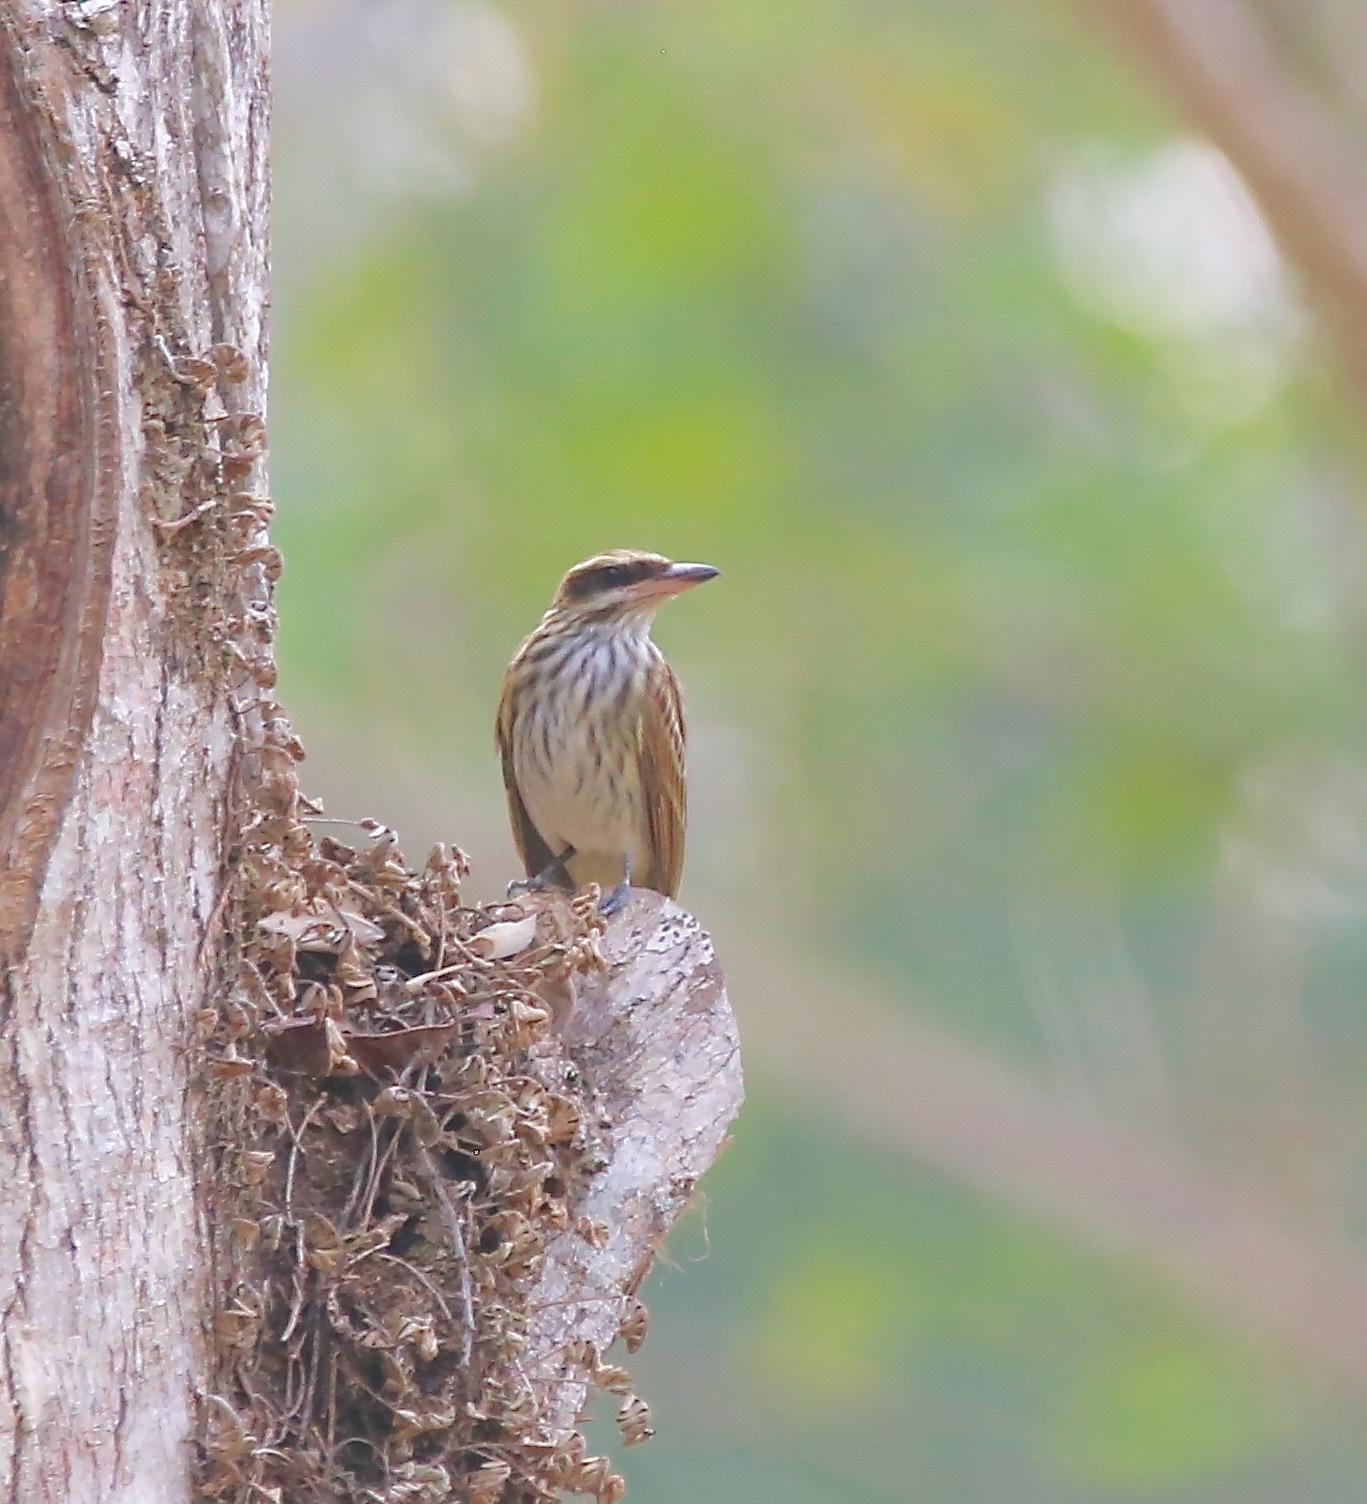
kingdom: Animalia
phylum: Chordata
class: Aves
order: Passeriformes
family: Tyrannidae
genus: Myiodynastes
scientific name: Myiodynastes maculatus
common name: Streaked flycatcher
